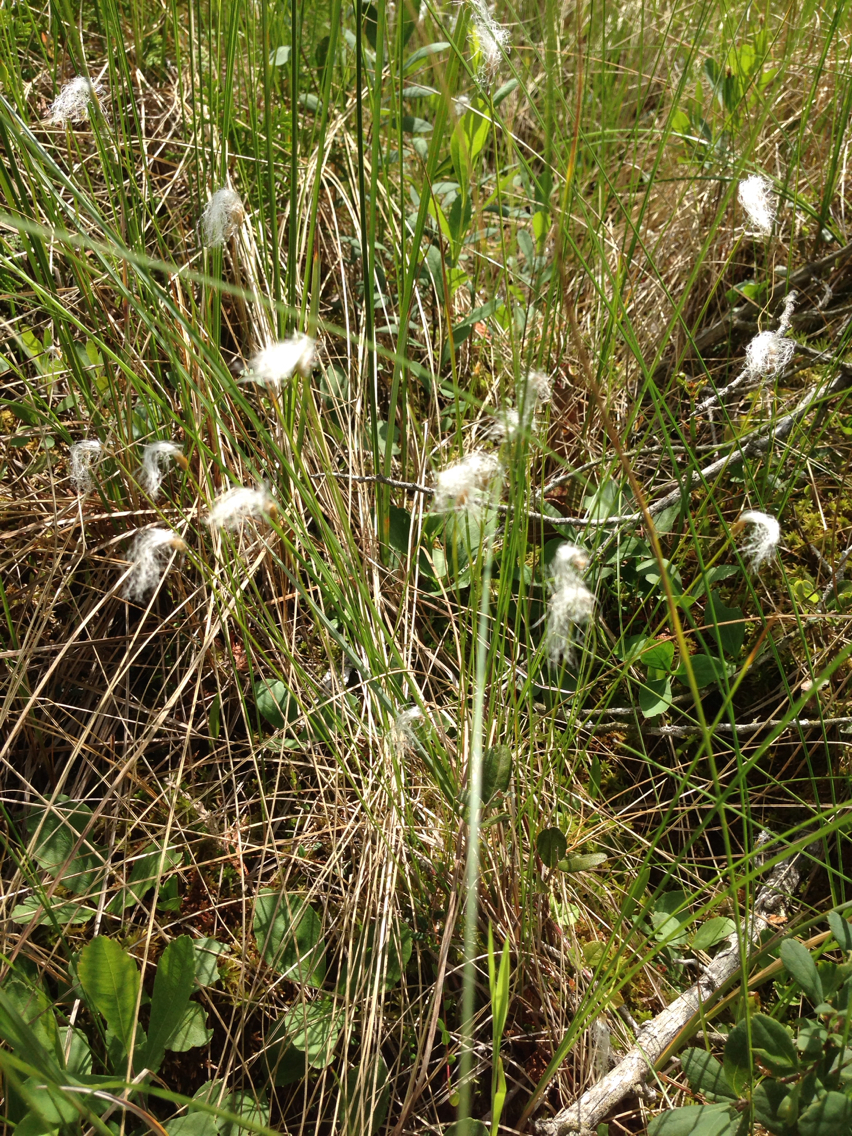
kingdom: Plantae
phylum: Tracheophyta
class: Liliopsida
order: Poales
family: Cyperaceae
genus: Trichophorum
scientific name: Trichophorum alpinum
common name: Alpine bulrush
